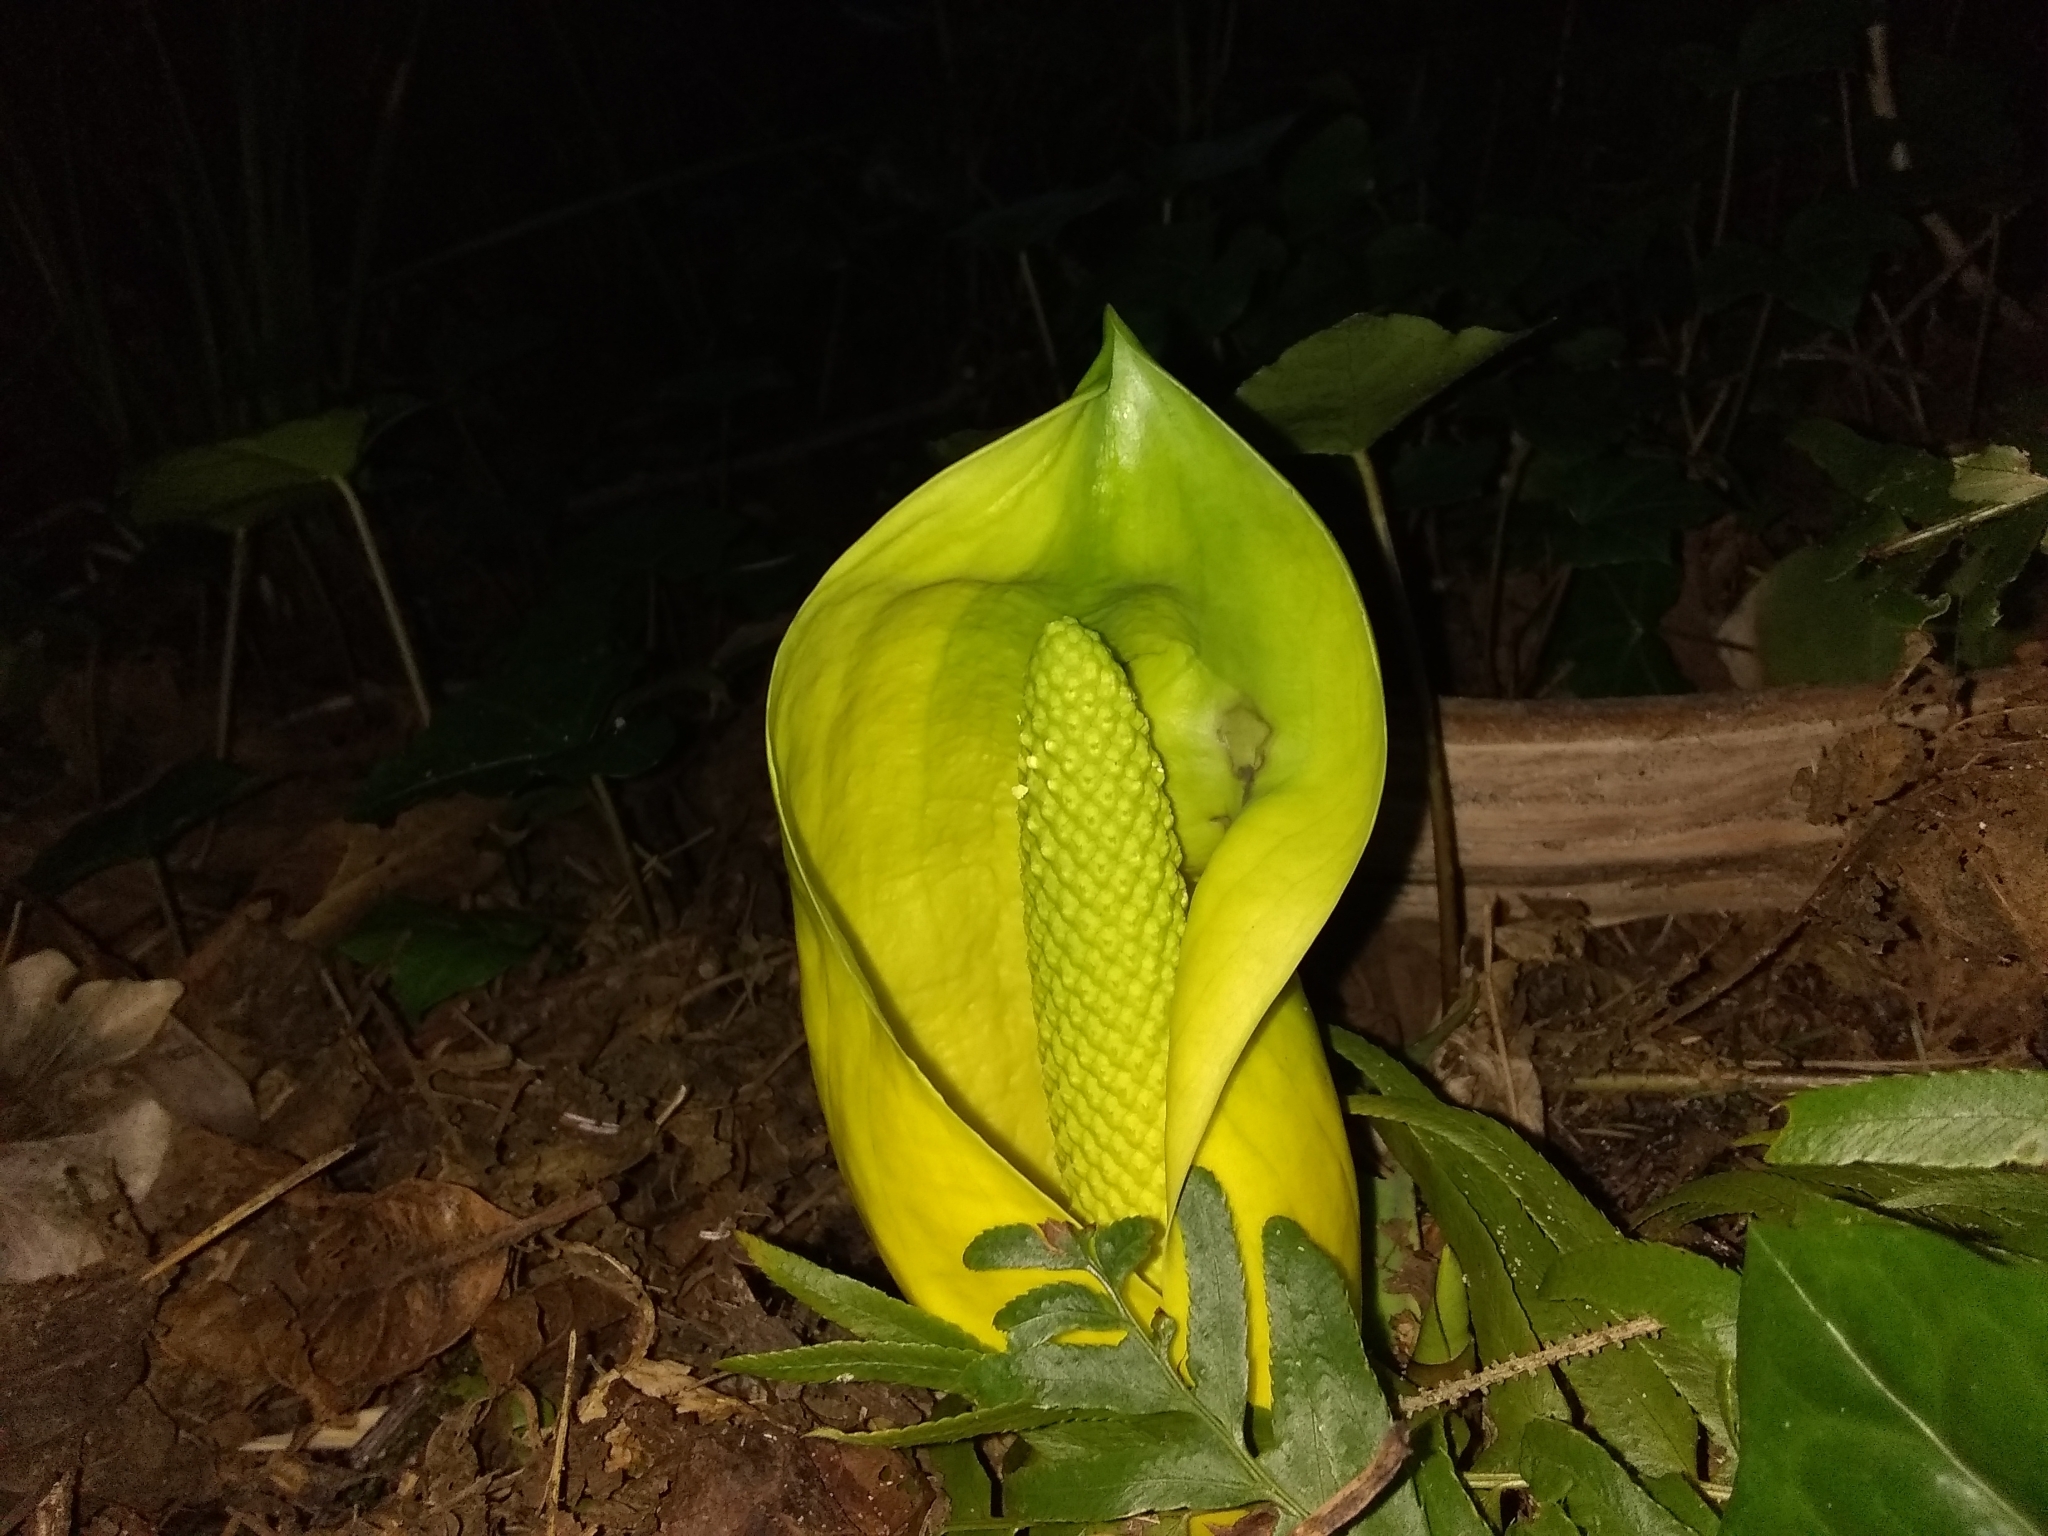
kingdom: Plantae
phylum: Tracheophyta
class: Liliopsida
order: Alismatales
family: Araceae
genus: Lysichiton
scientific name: Lysichiton americanus
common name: American skunk cabbage
